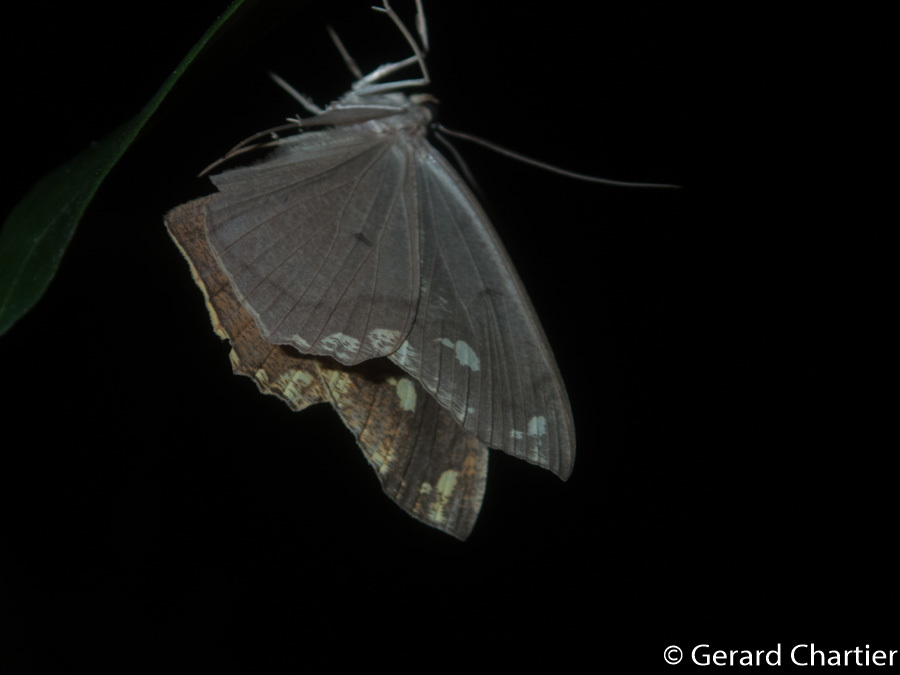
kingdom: Animalia
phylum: Arthropoda
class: Insecta
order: Lepidoptera
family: Geometridae
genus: Pareumelea
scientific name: Pareumelea eugeniata
